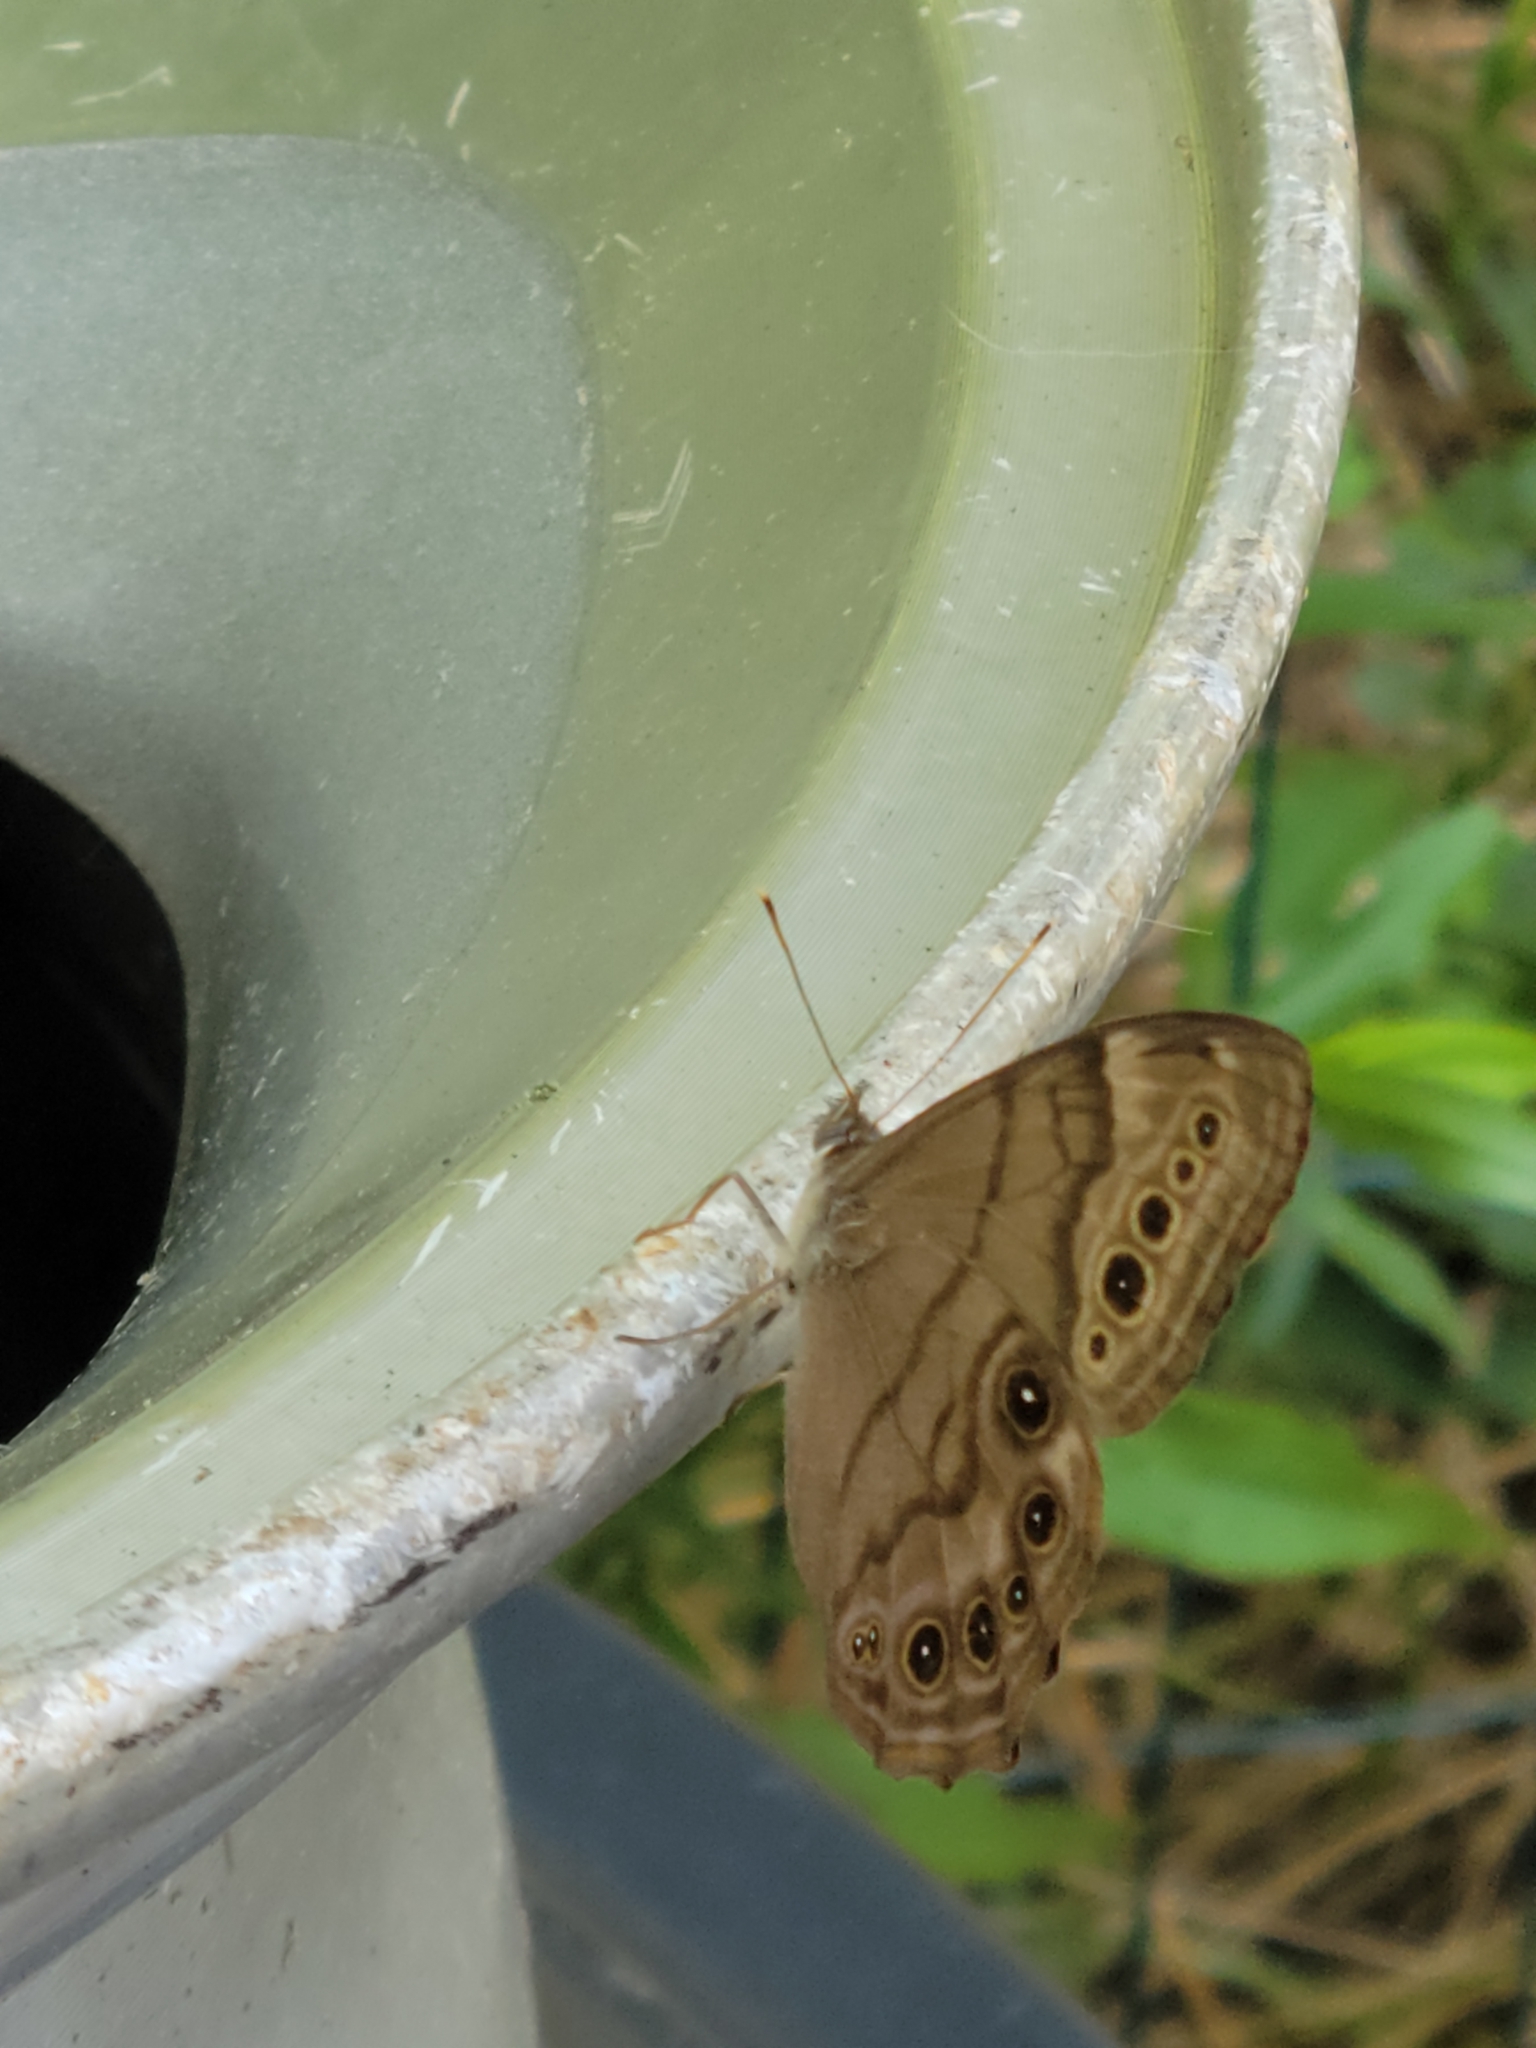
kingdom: Animalia
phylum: Arthropoda
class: Insecta
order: Lepidoptera
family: Nymphalidae
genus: Lethe
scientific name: Lethe anthedon
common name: Northern pearly-eye
